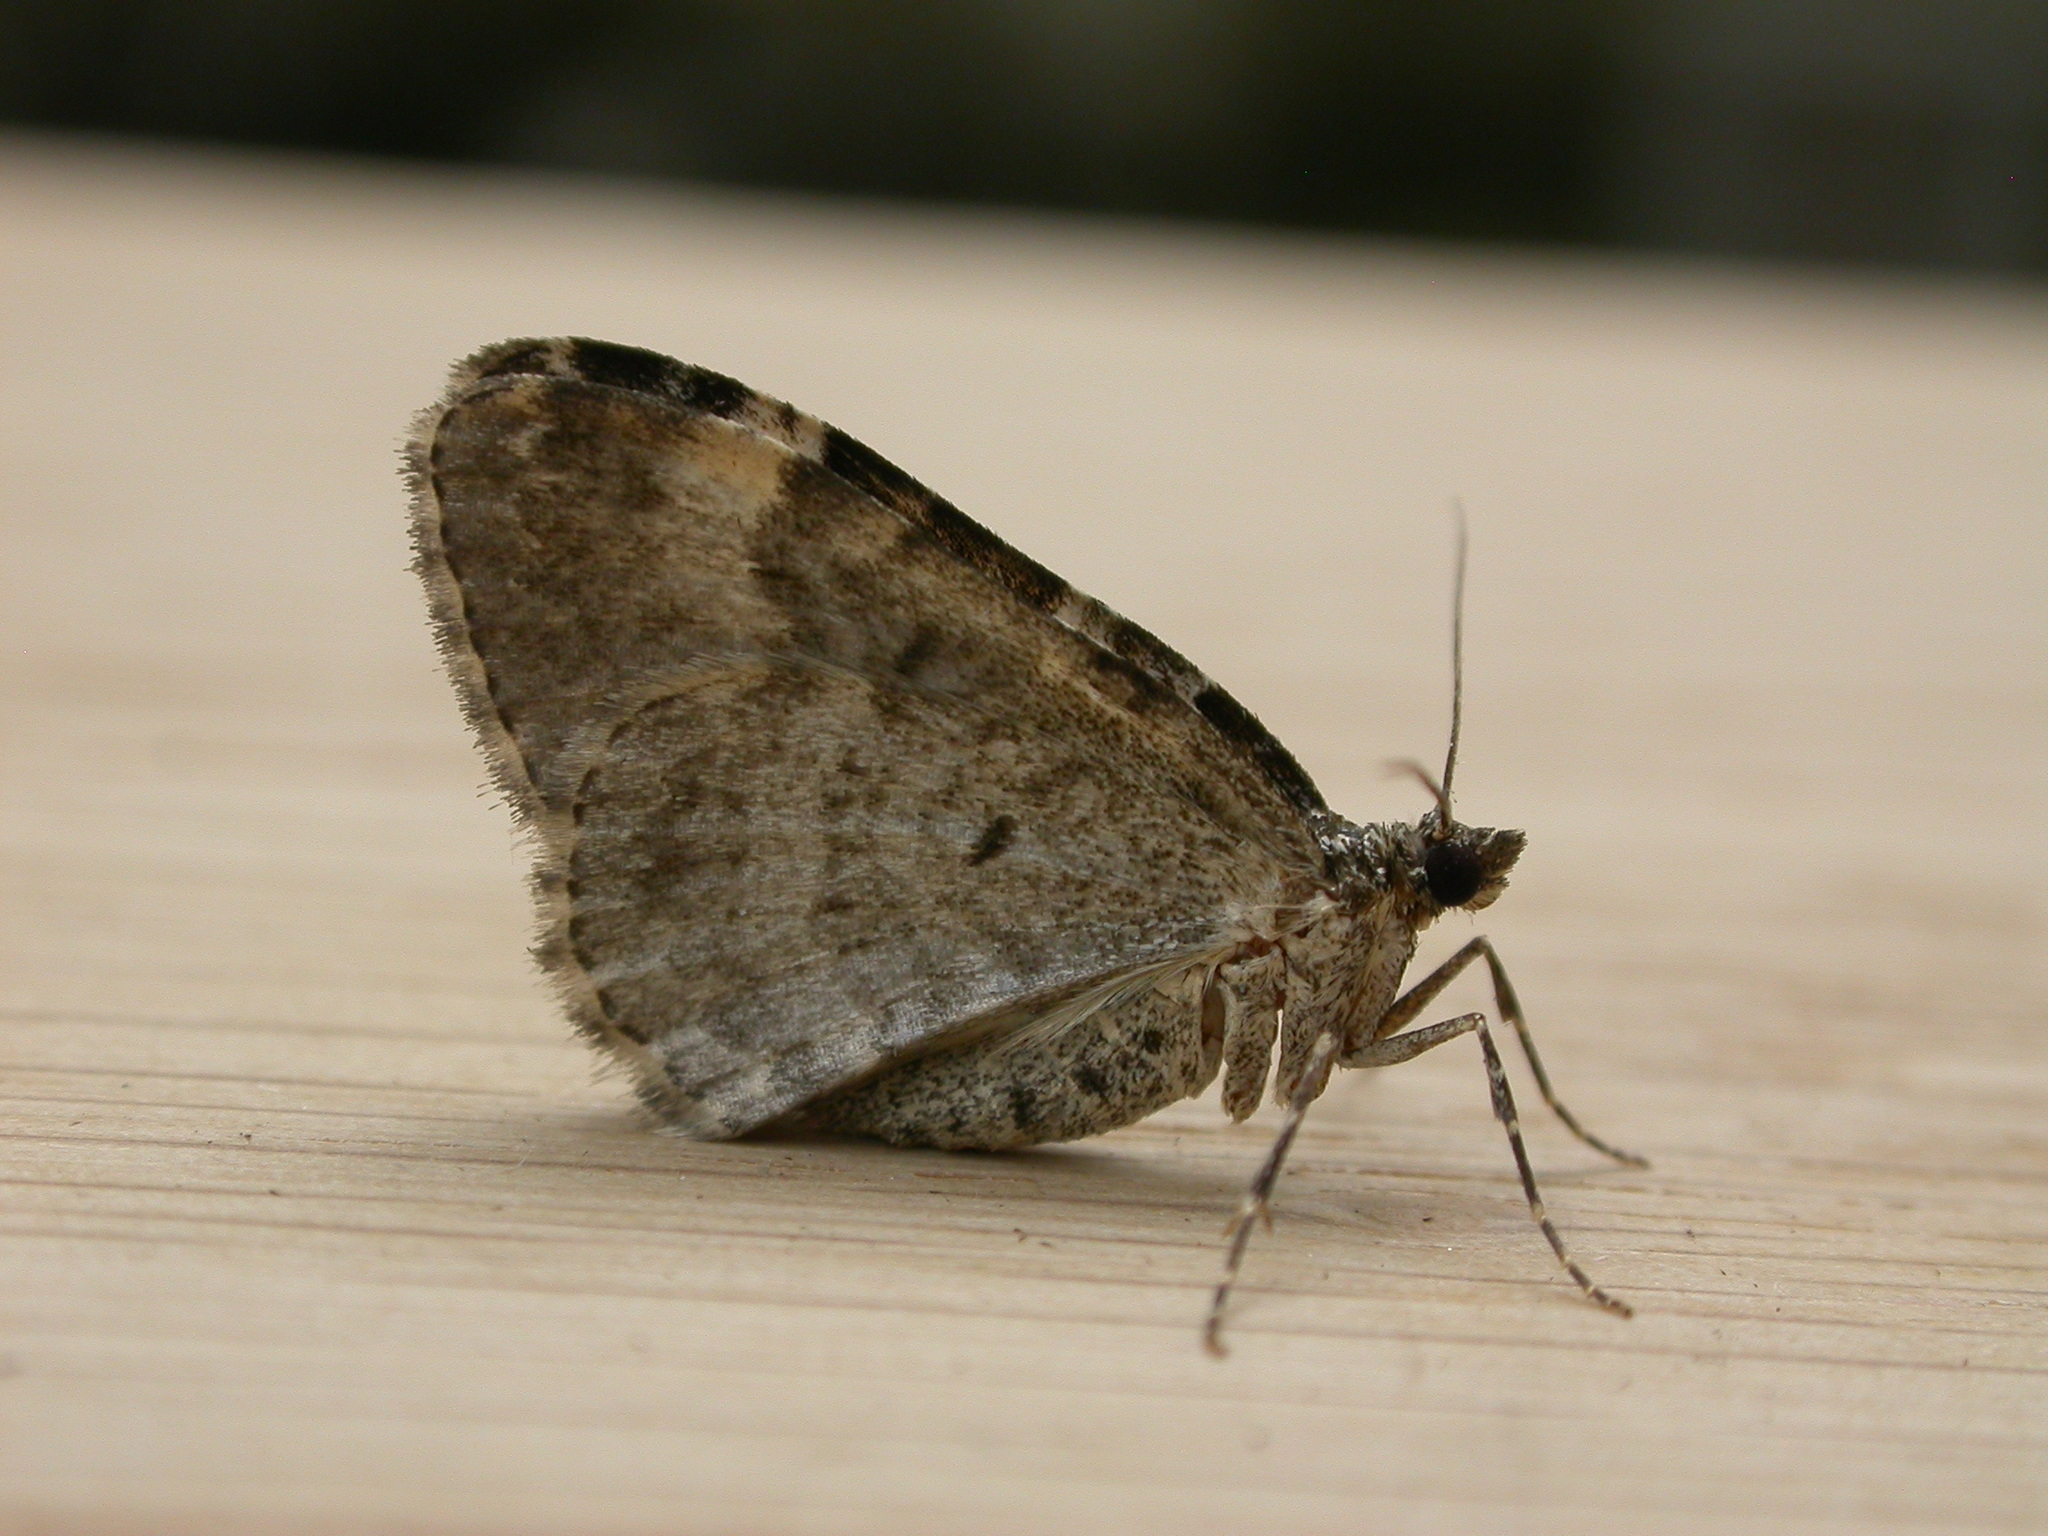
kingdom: Animalia
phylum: Arthropoda
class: Insecta
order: Lepidoptera
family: Geometridae
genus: Xanthorhoe
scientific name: Xanthorhoe fluctuata
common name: Garden carpet
